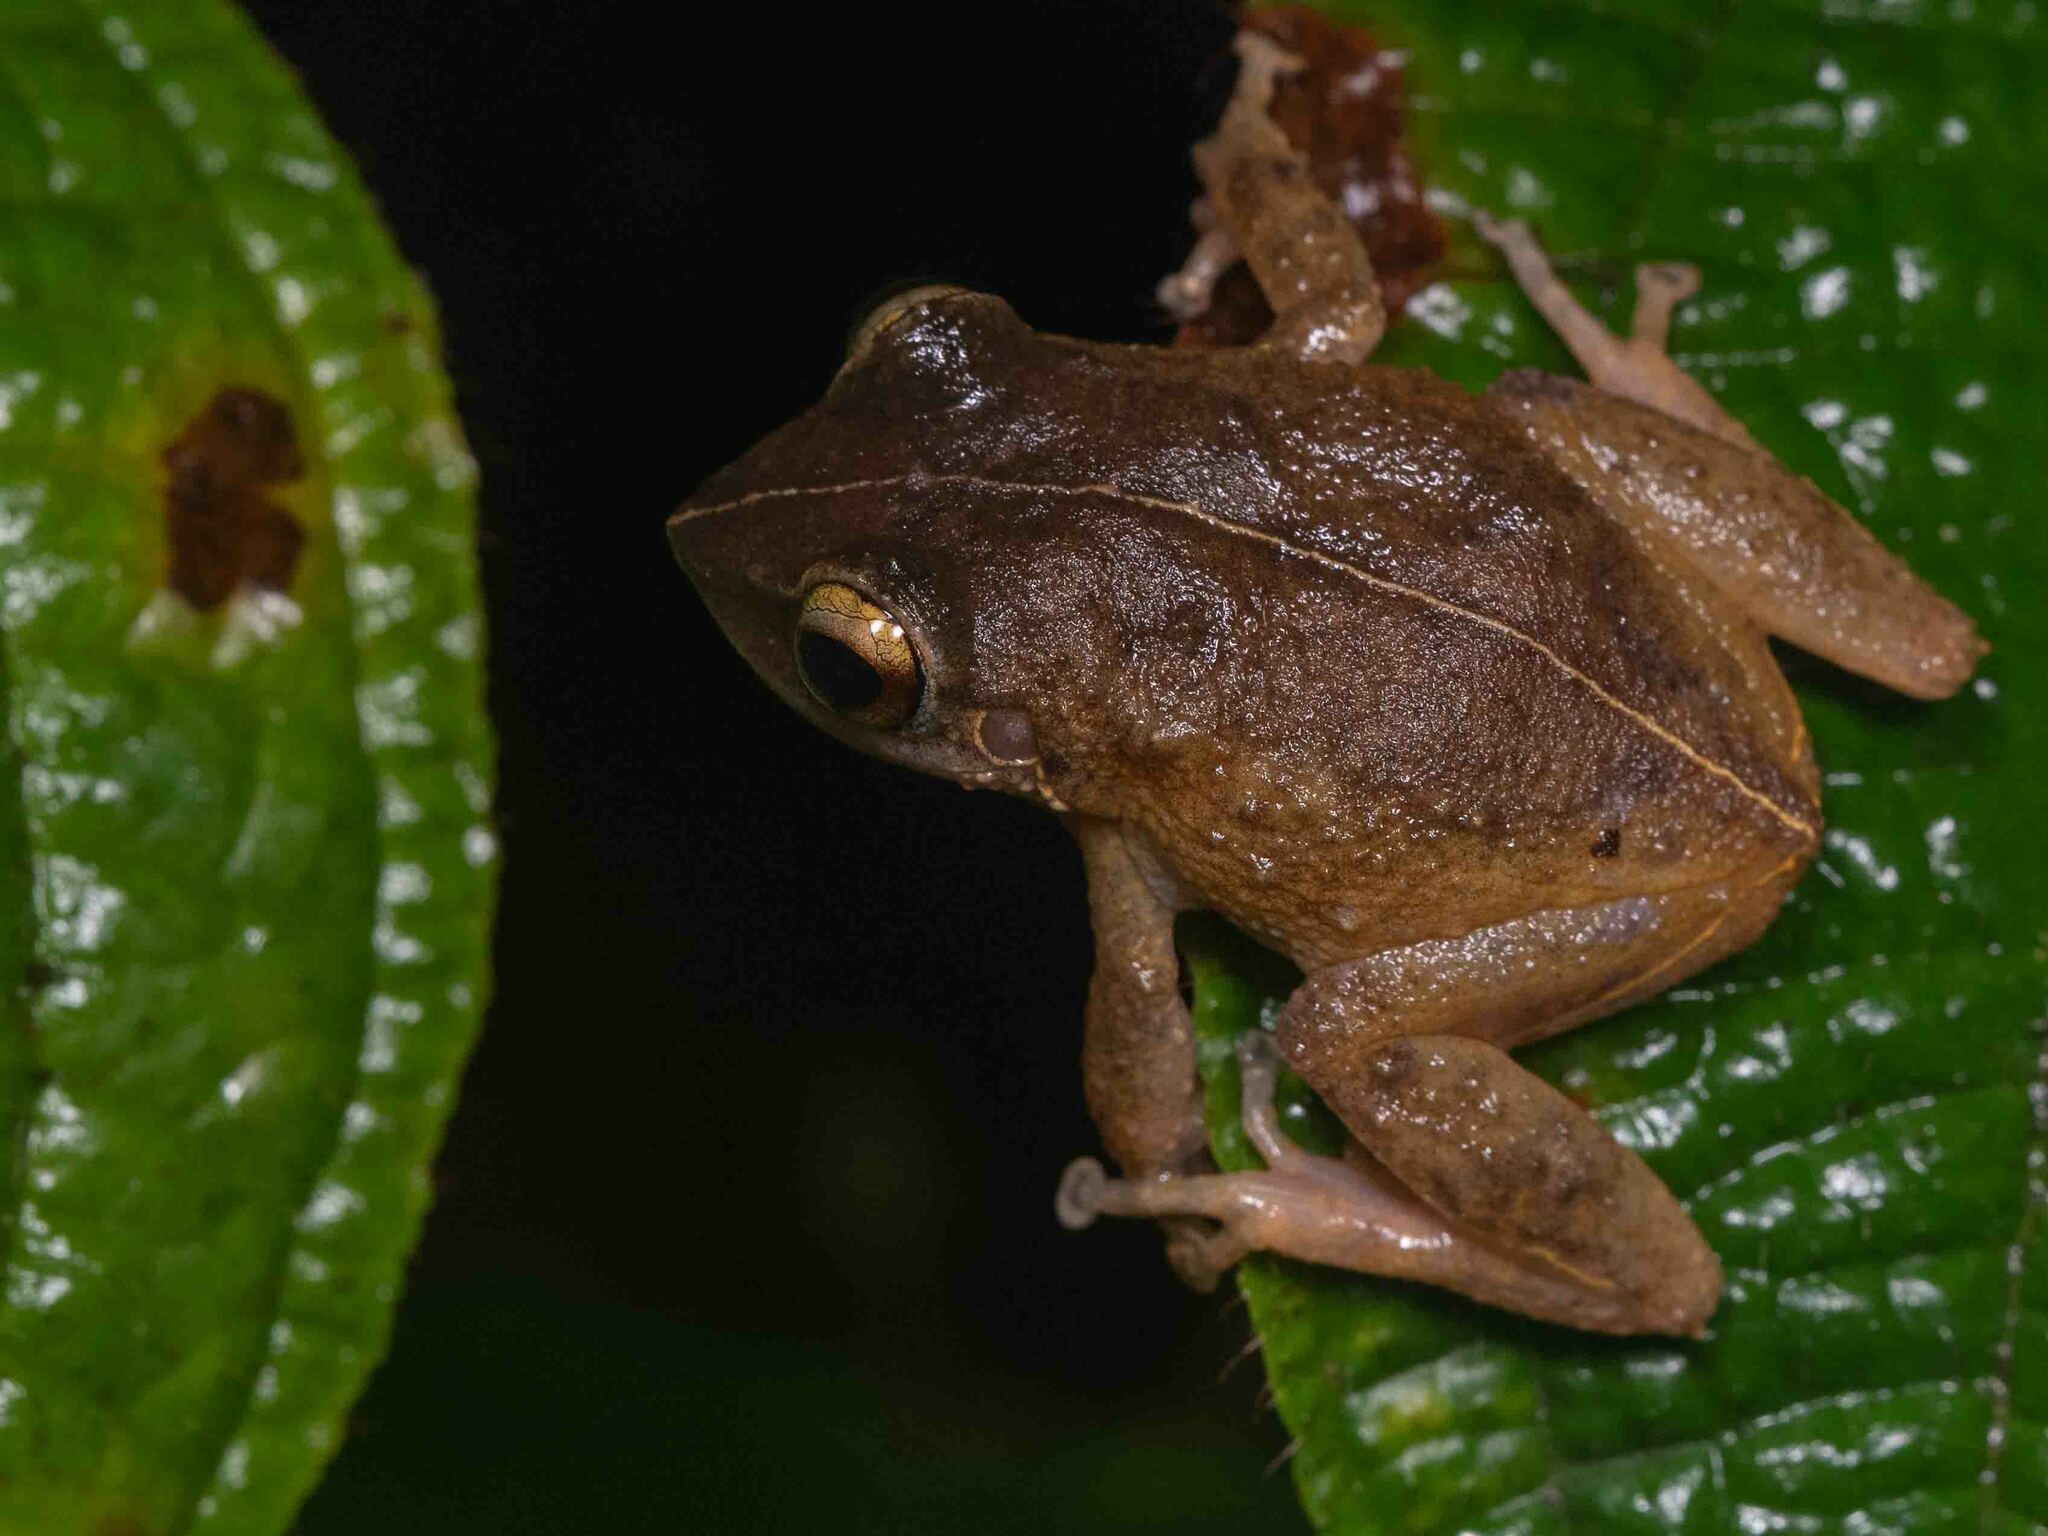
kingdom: Animalia
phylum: Chordata
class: Amphibia
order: Anura
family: Eleutherodactylidae
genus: Eleutherodactylus
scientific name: Eleutherodactylus coqui
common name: Coqui frog
